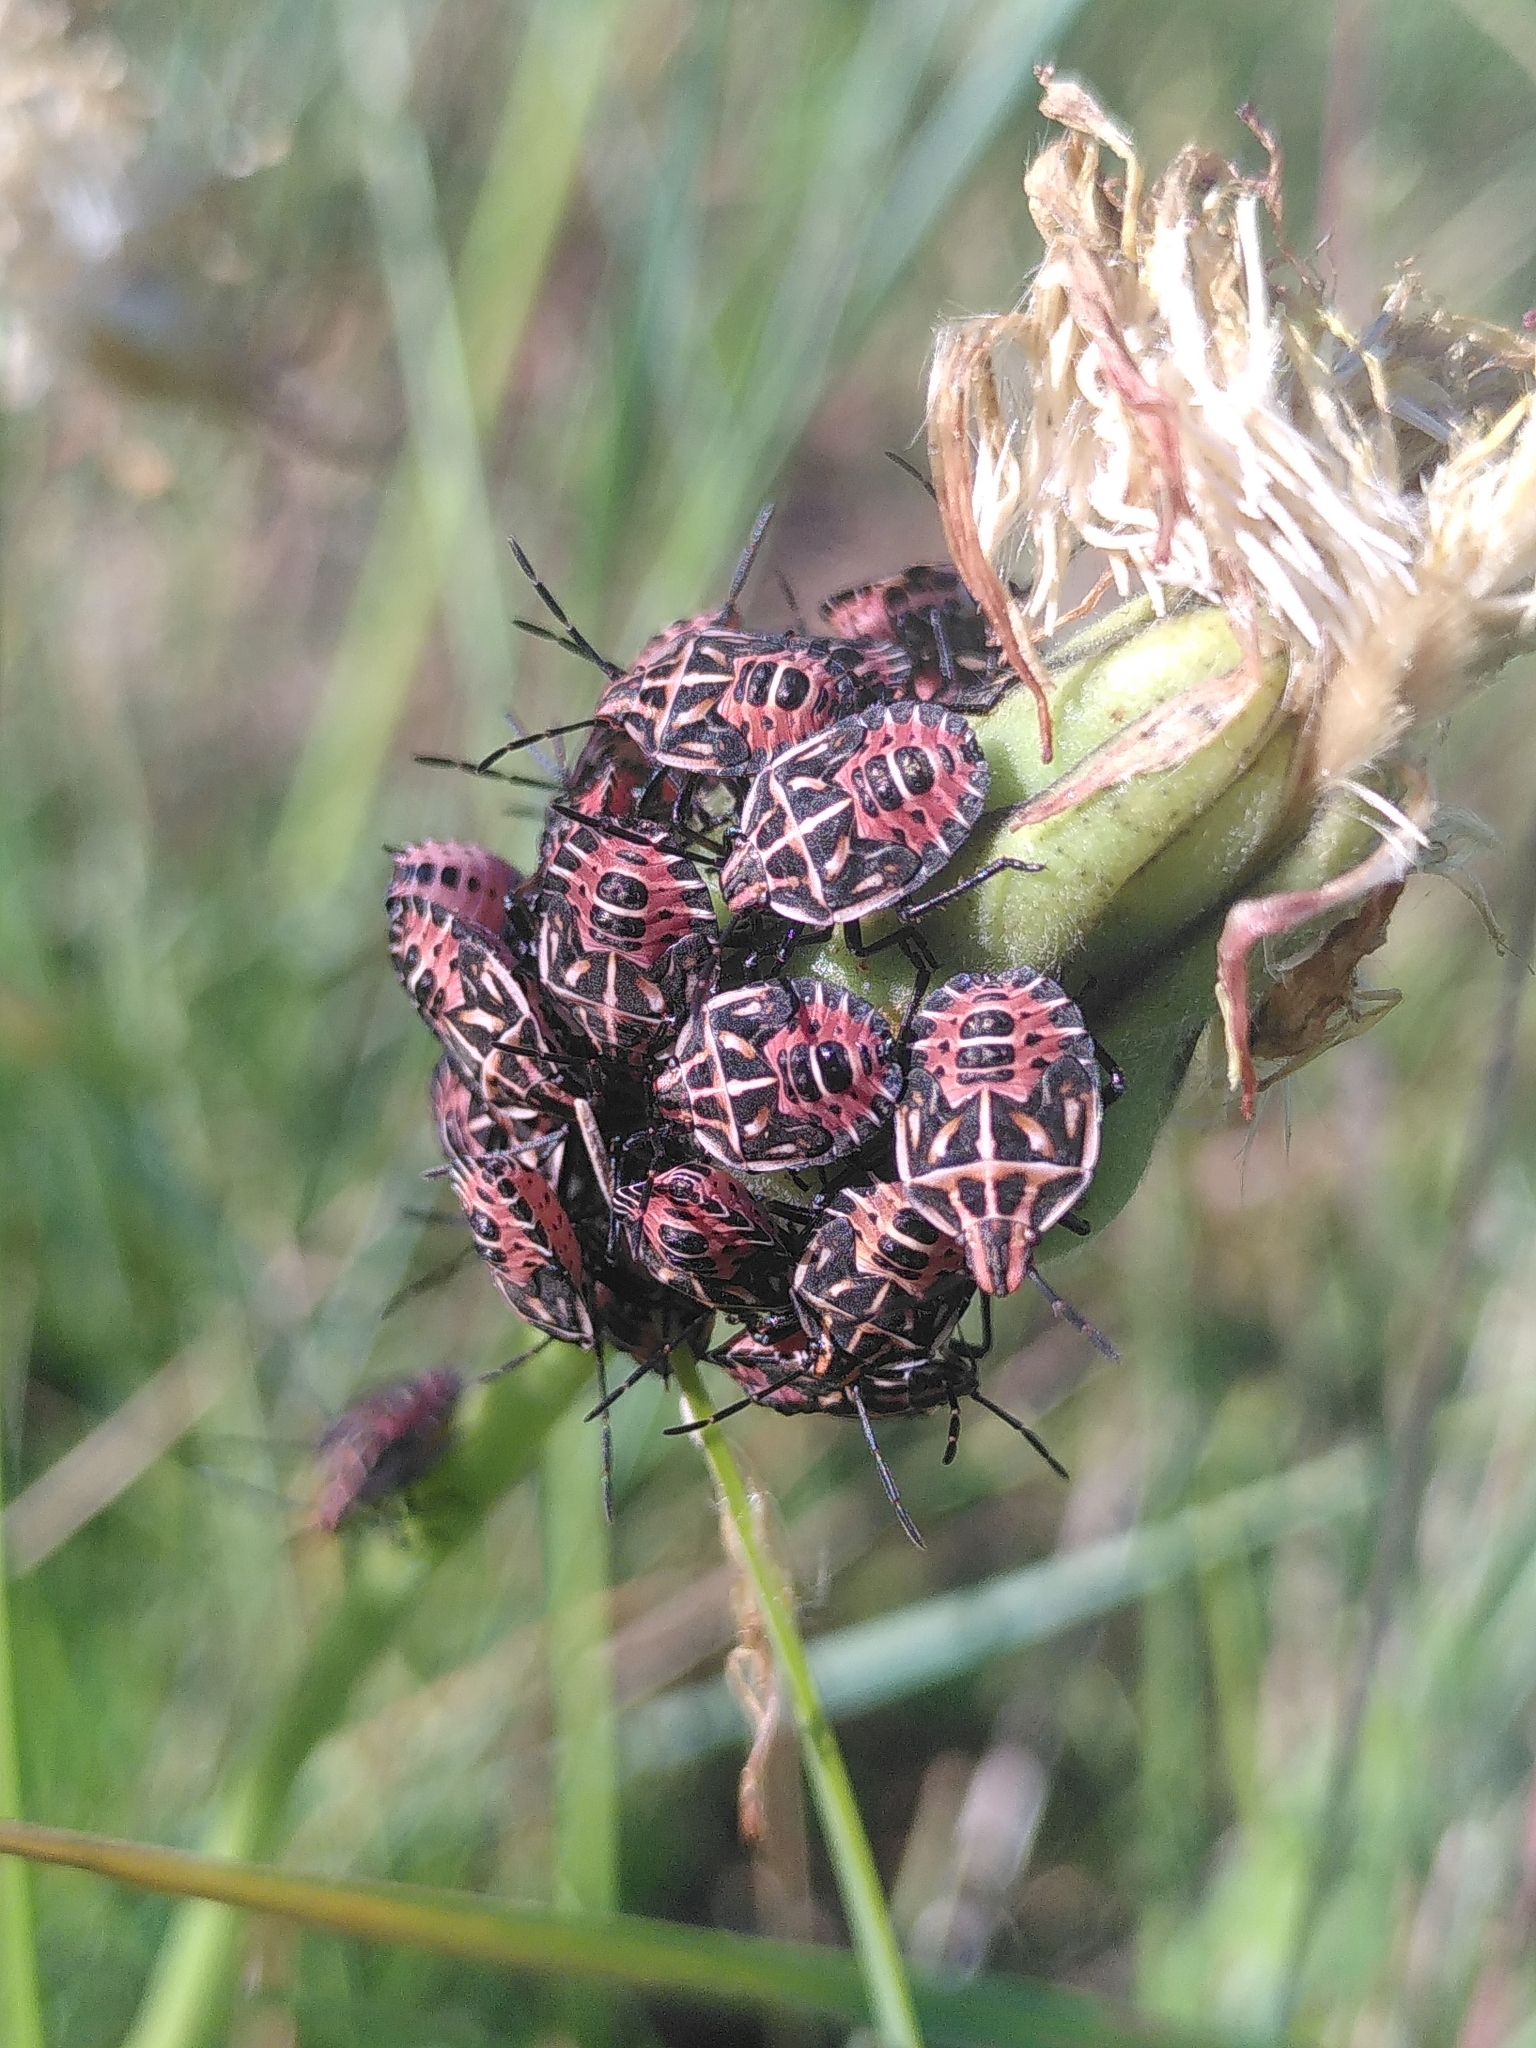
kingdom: Animalia
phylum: Arthropoda
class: Insecta
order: Hemiptera
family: Miridae
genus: Orthops
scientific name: Orthops kalmii
